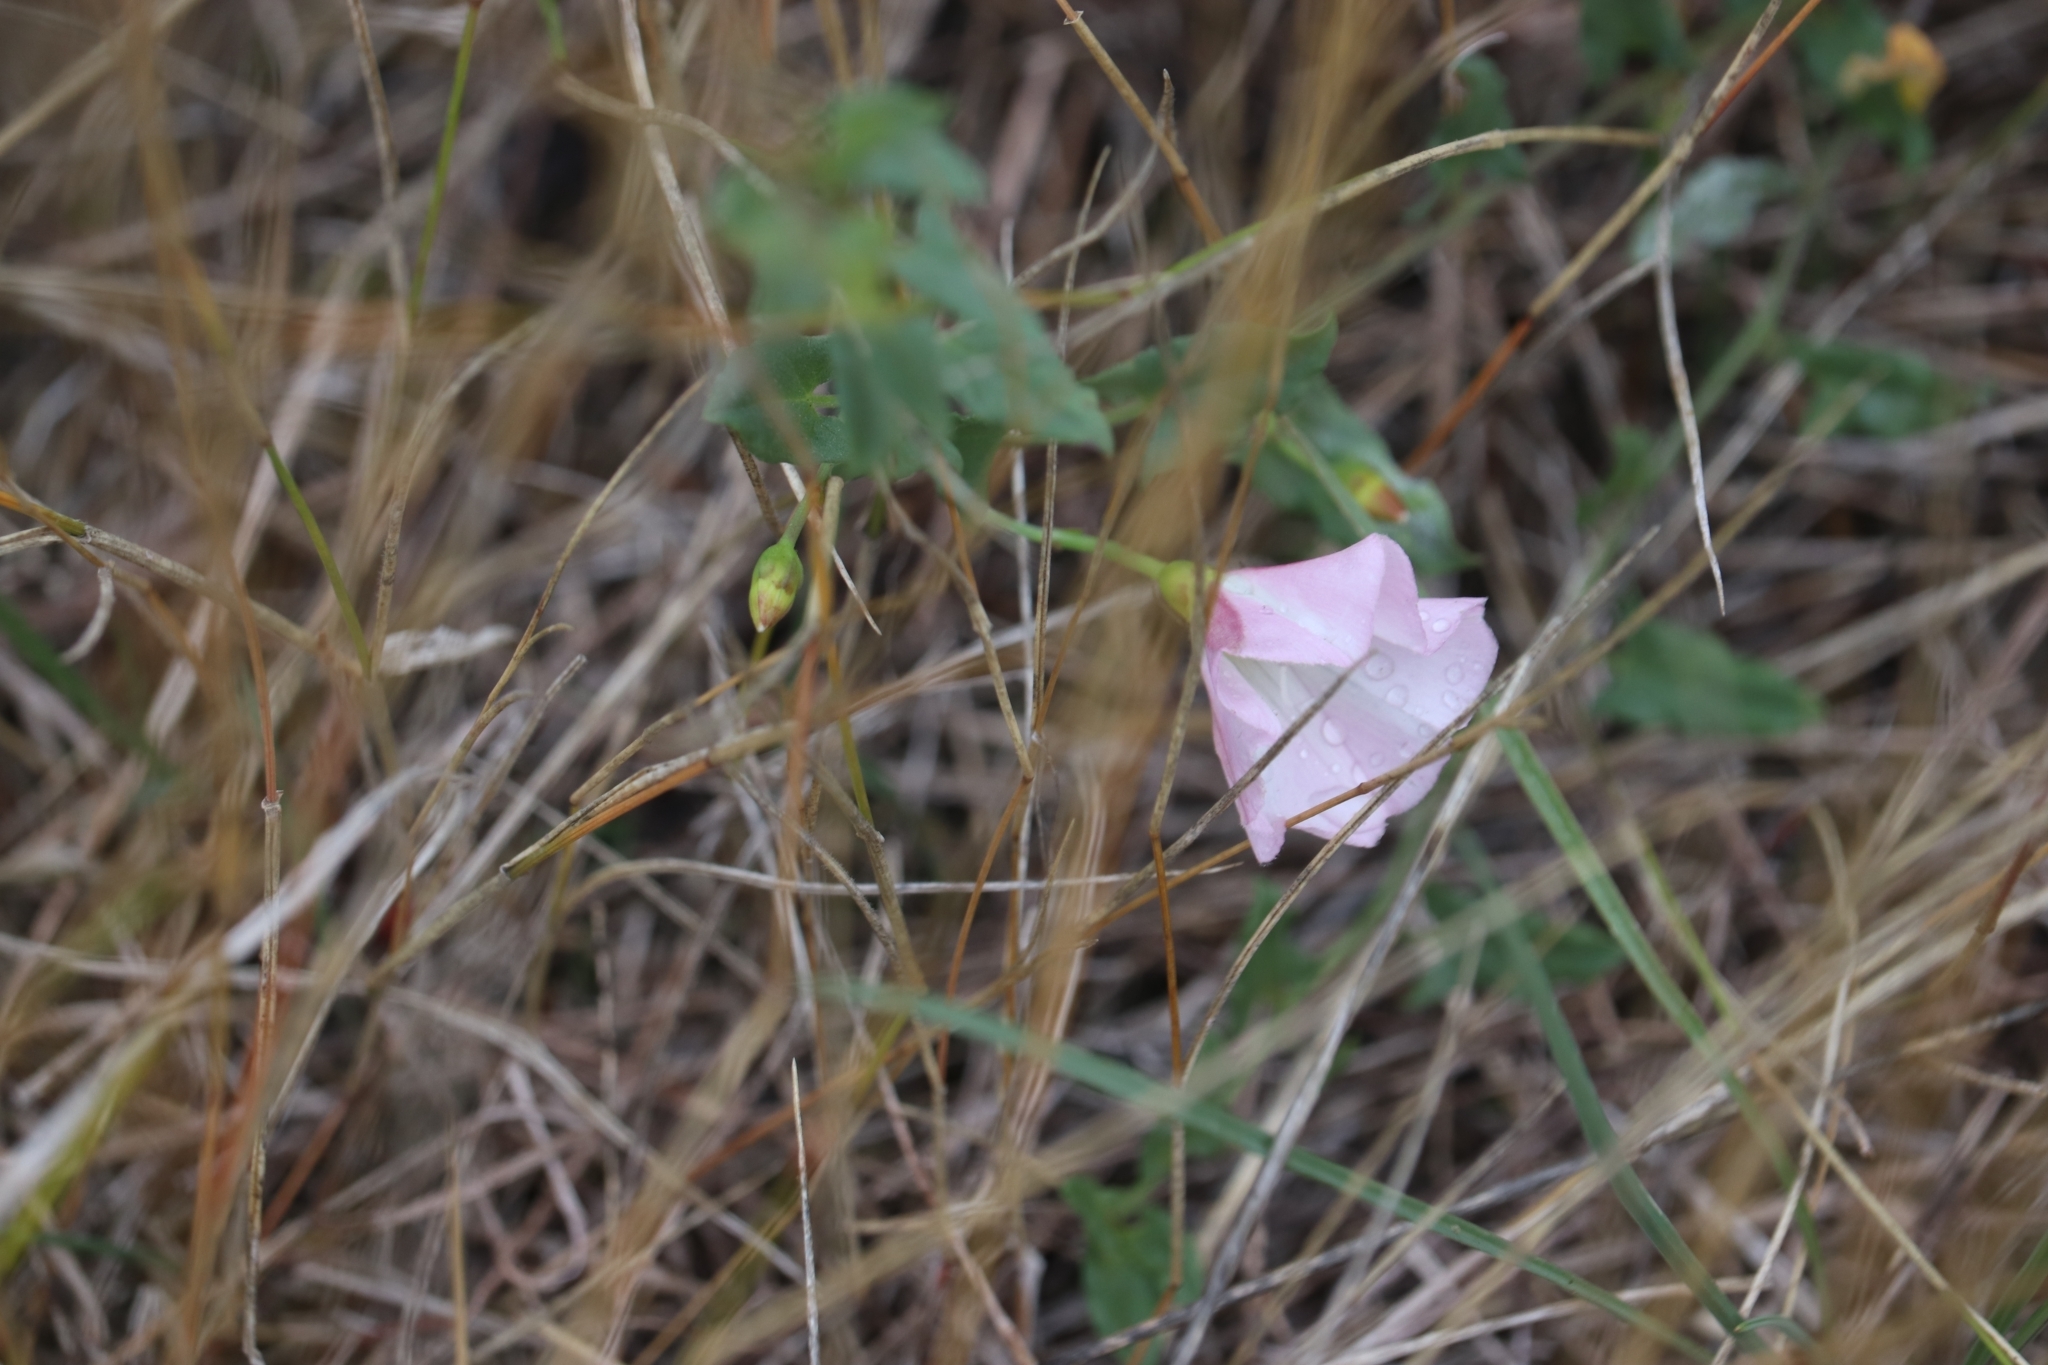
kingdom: Plantae
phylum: Tracheophyta
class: Magnoliopsida
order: Solanales
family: Convolvulaceae
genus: Convolvulus
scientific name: Convolvulus arvensis
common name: Field bindweed
